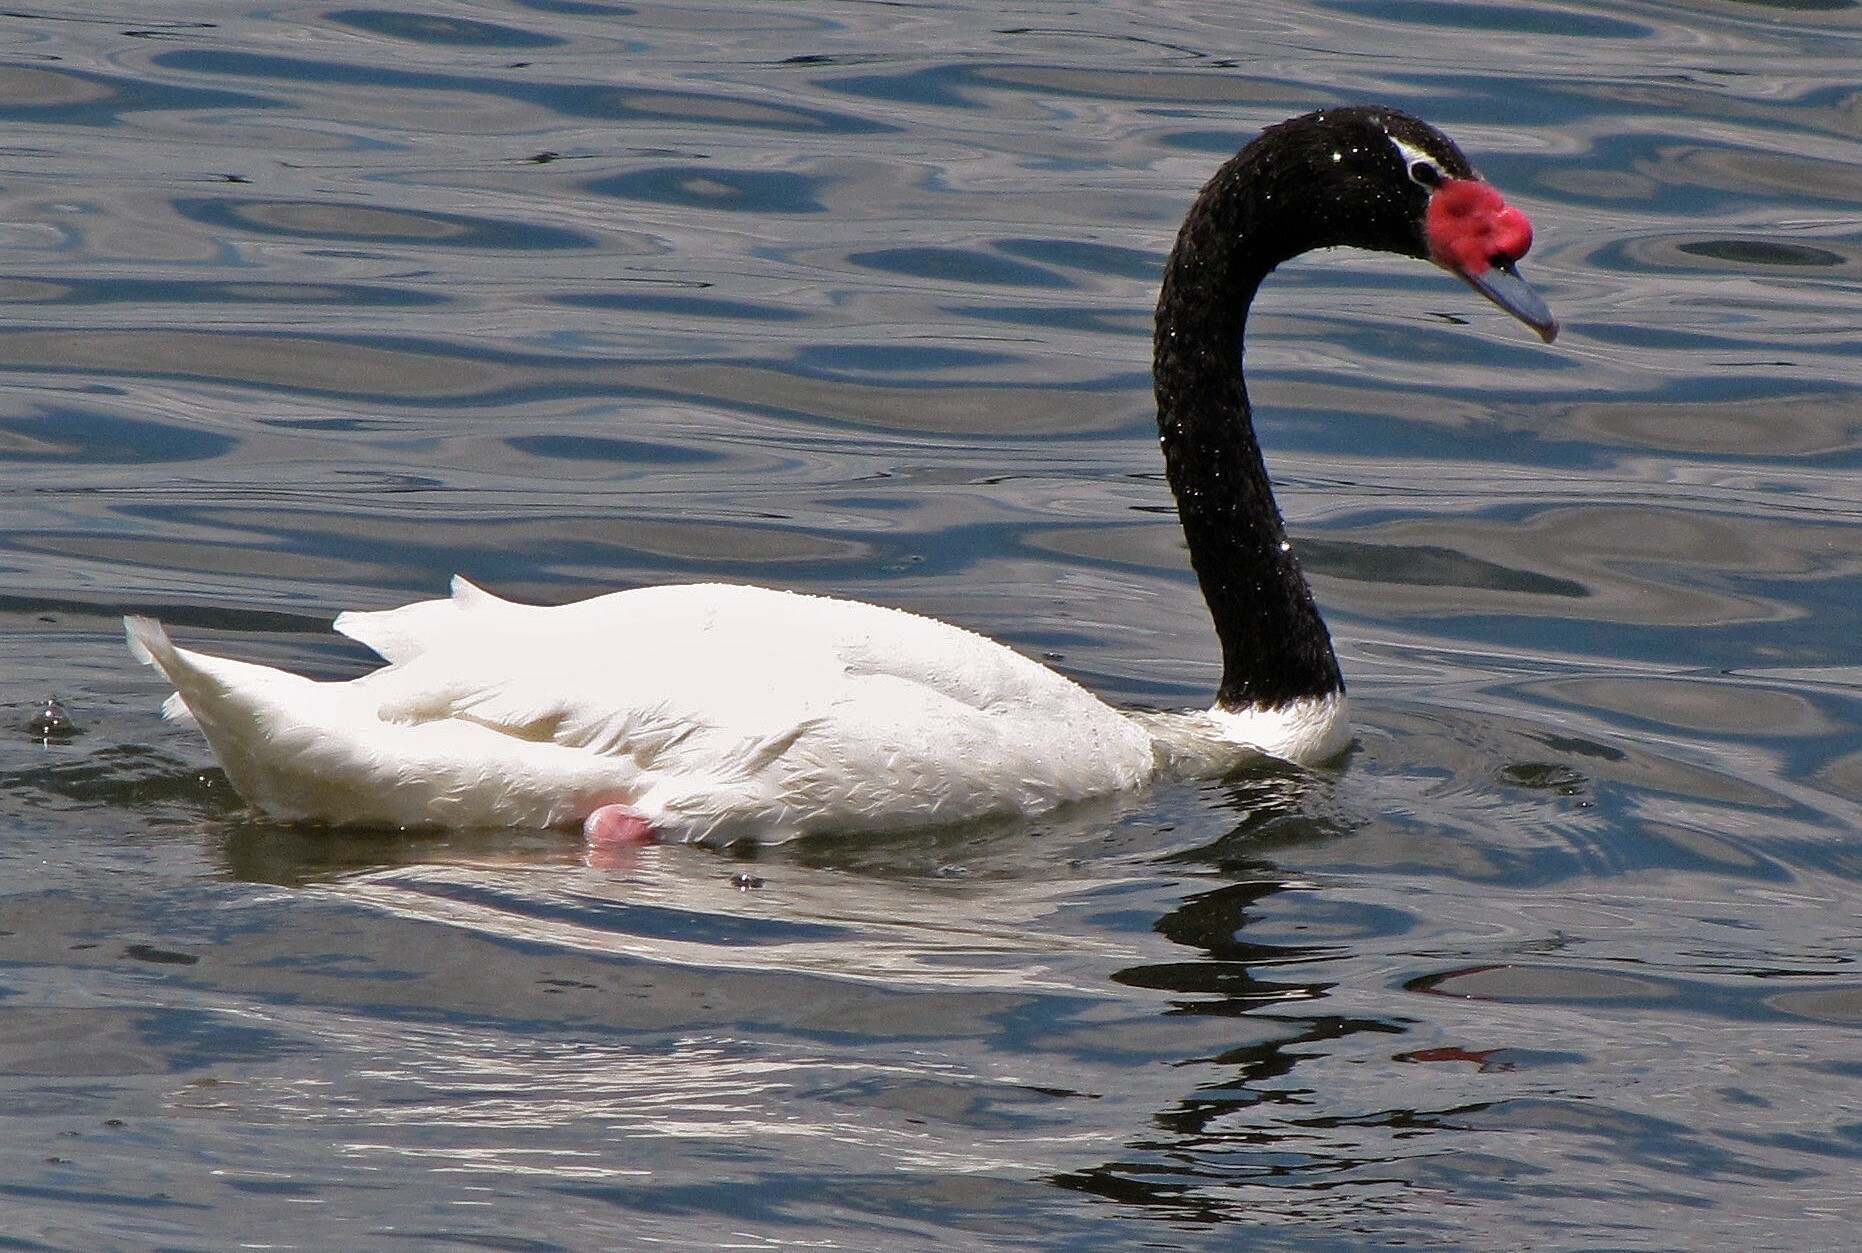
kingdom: Animalia
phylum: Chordata
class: Aves
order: Anseriformes
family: Anatidae
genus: Cygnus
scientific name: Cygnus melancoryphus
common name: Black-necked swan
